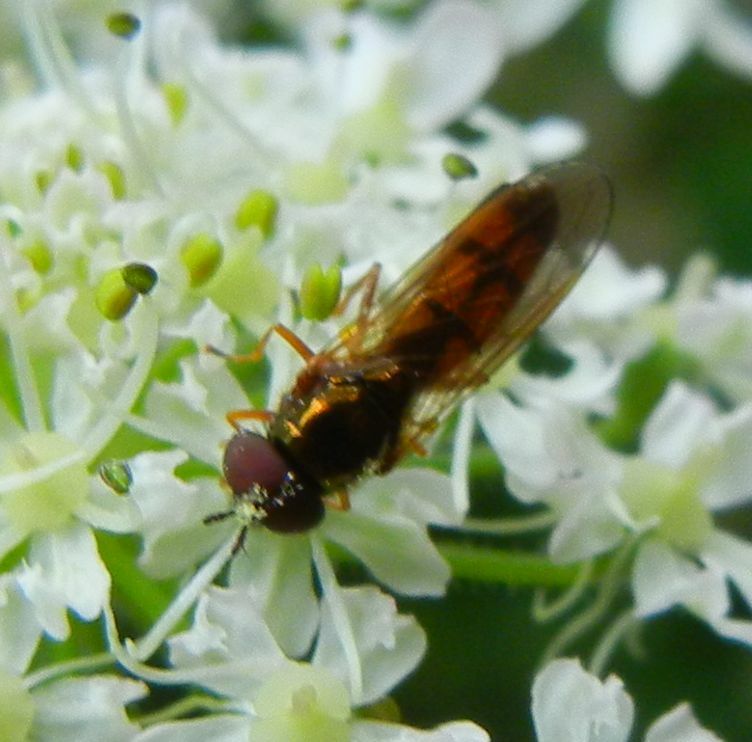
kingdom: Animalia
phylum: Arthropoda
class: Insecta
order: Diptera
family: Syrphidae
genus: Melanostoma
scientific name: Melanostoma mellina
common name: Hover fly
